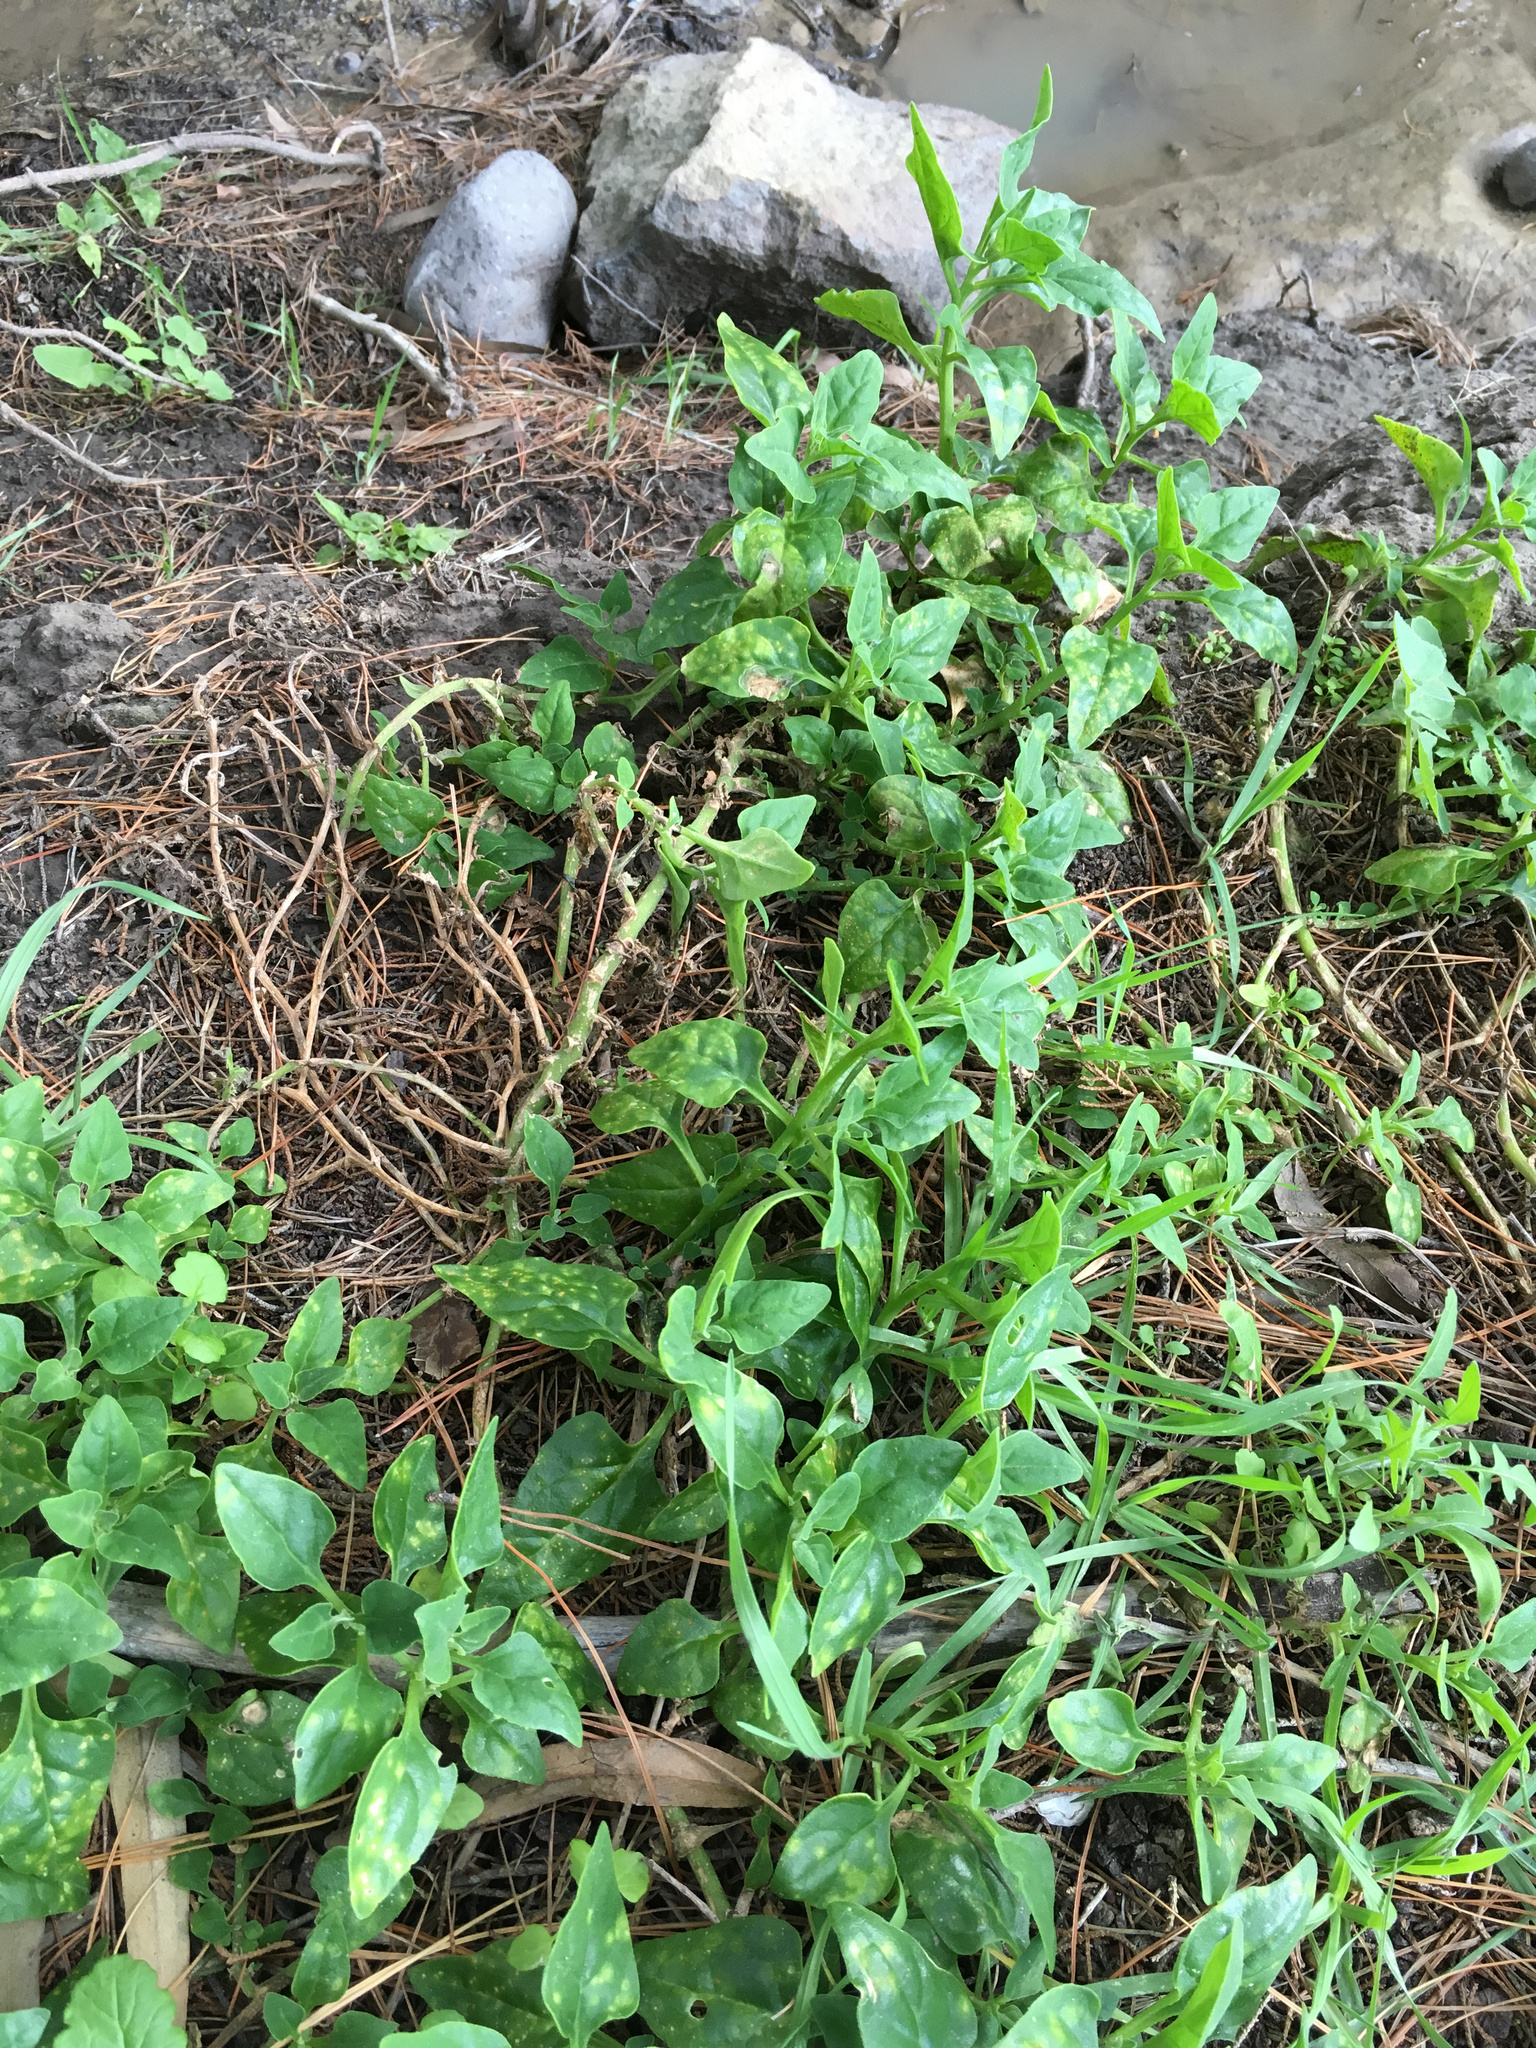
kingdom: Plantae
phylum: Tracheophyta
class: Magnoliopsida
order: Caryophyllales
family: Aizoaceae
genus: Tetragonia
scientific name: Tetragonia tetragonoides
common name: New zealand-spinach
